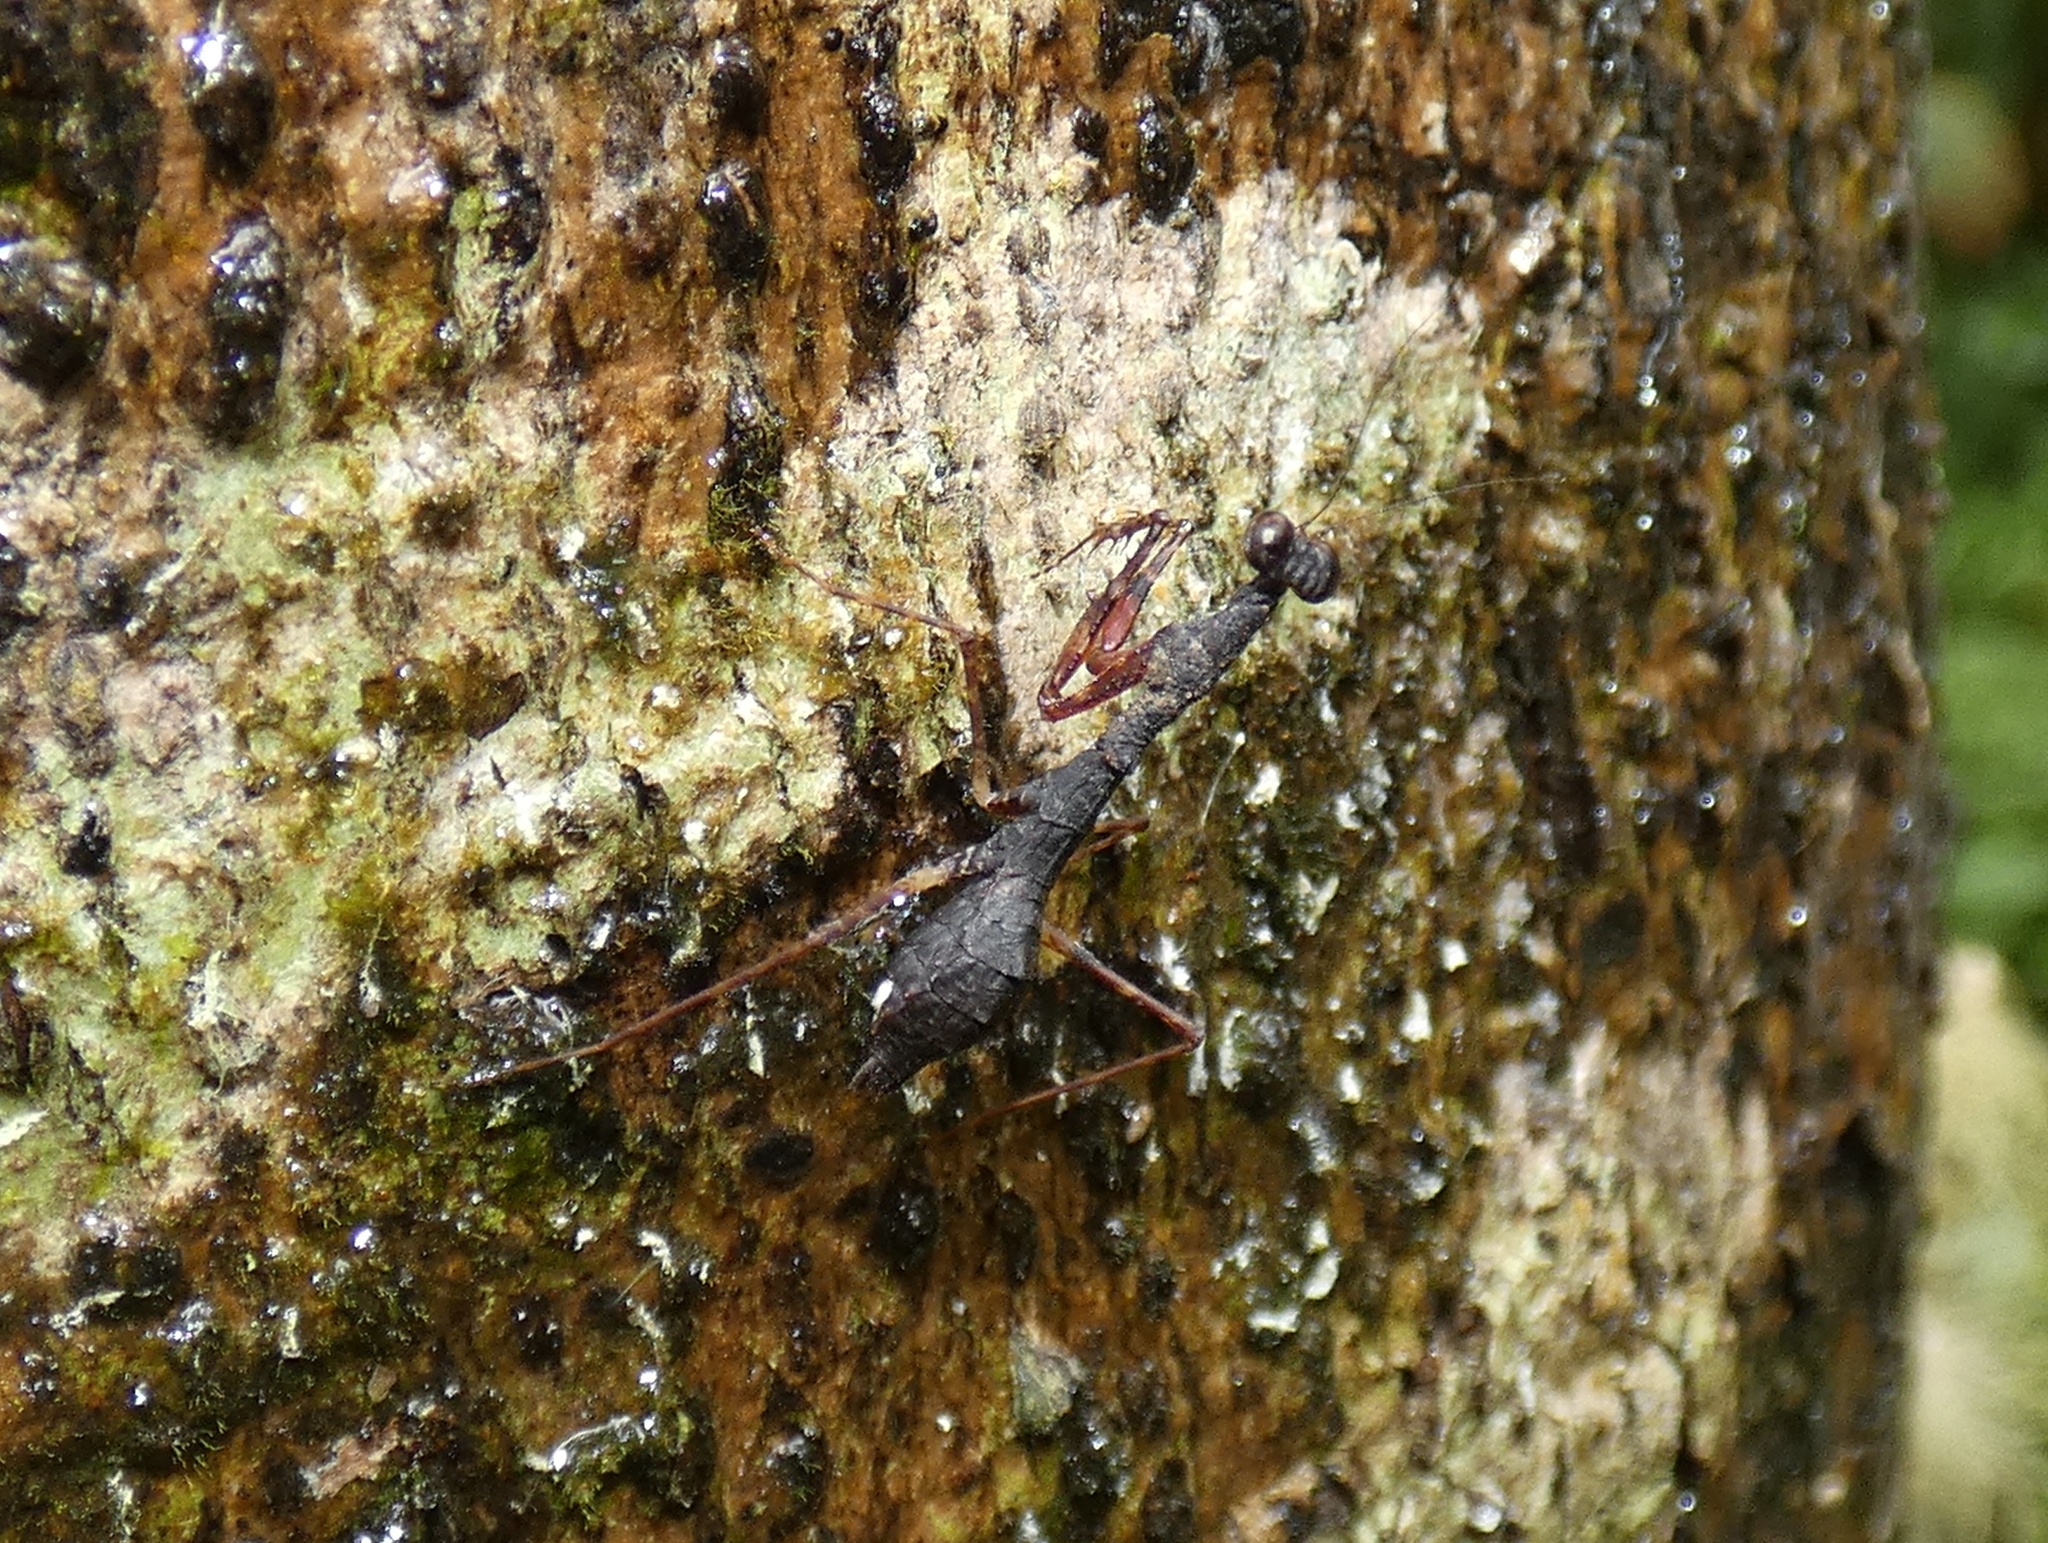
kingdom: Animalia
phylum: Arthropoda
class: Insecta
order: Mantodea
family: Thespidae
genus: Thrinaconyx
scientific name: Thrinaconyx fumosus
